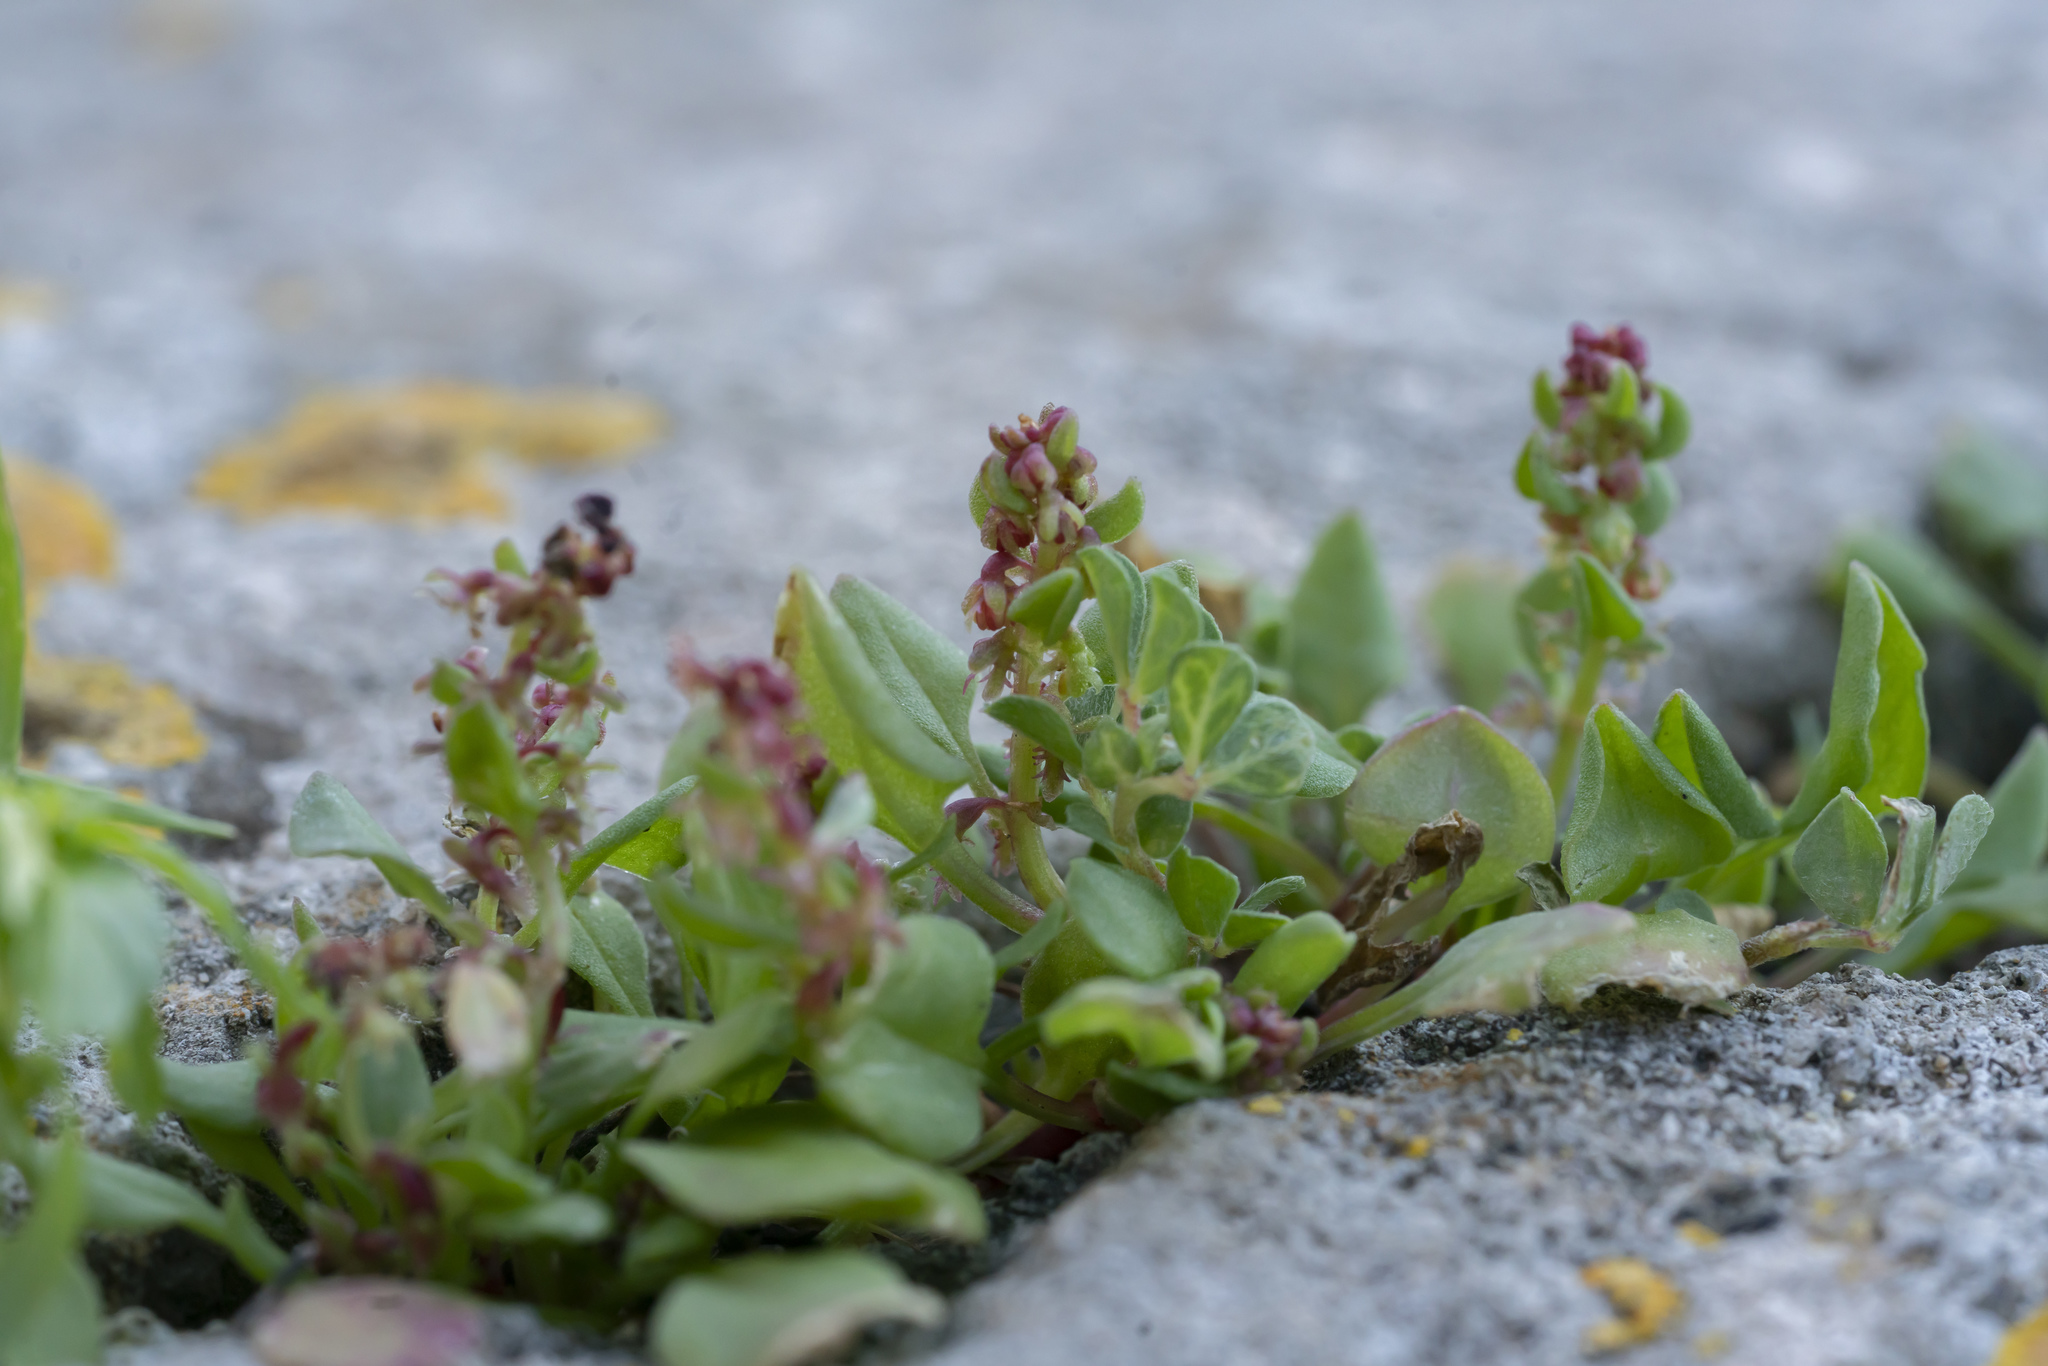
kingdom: Plantae
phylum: Tracheophyta
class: Magnoliopsida
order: Caryophyllales
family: Polygonaceae
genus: Rumex
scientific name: Rumex bucephalophorus
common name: Red dock
